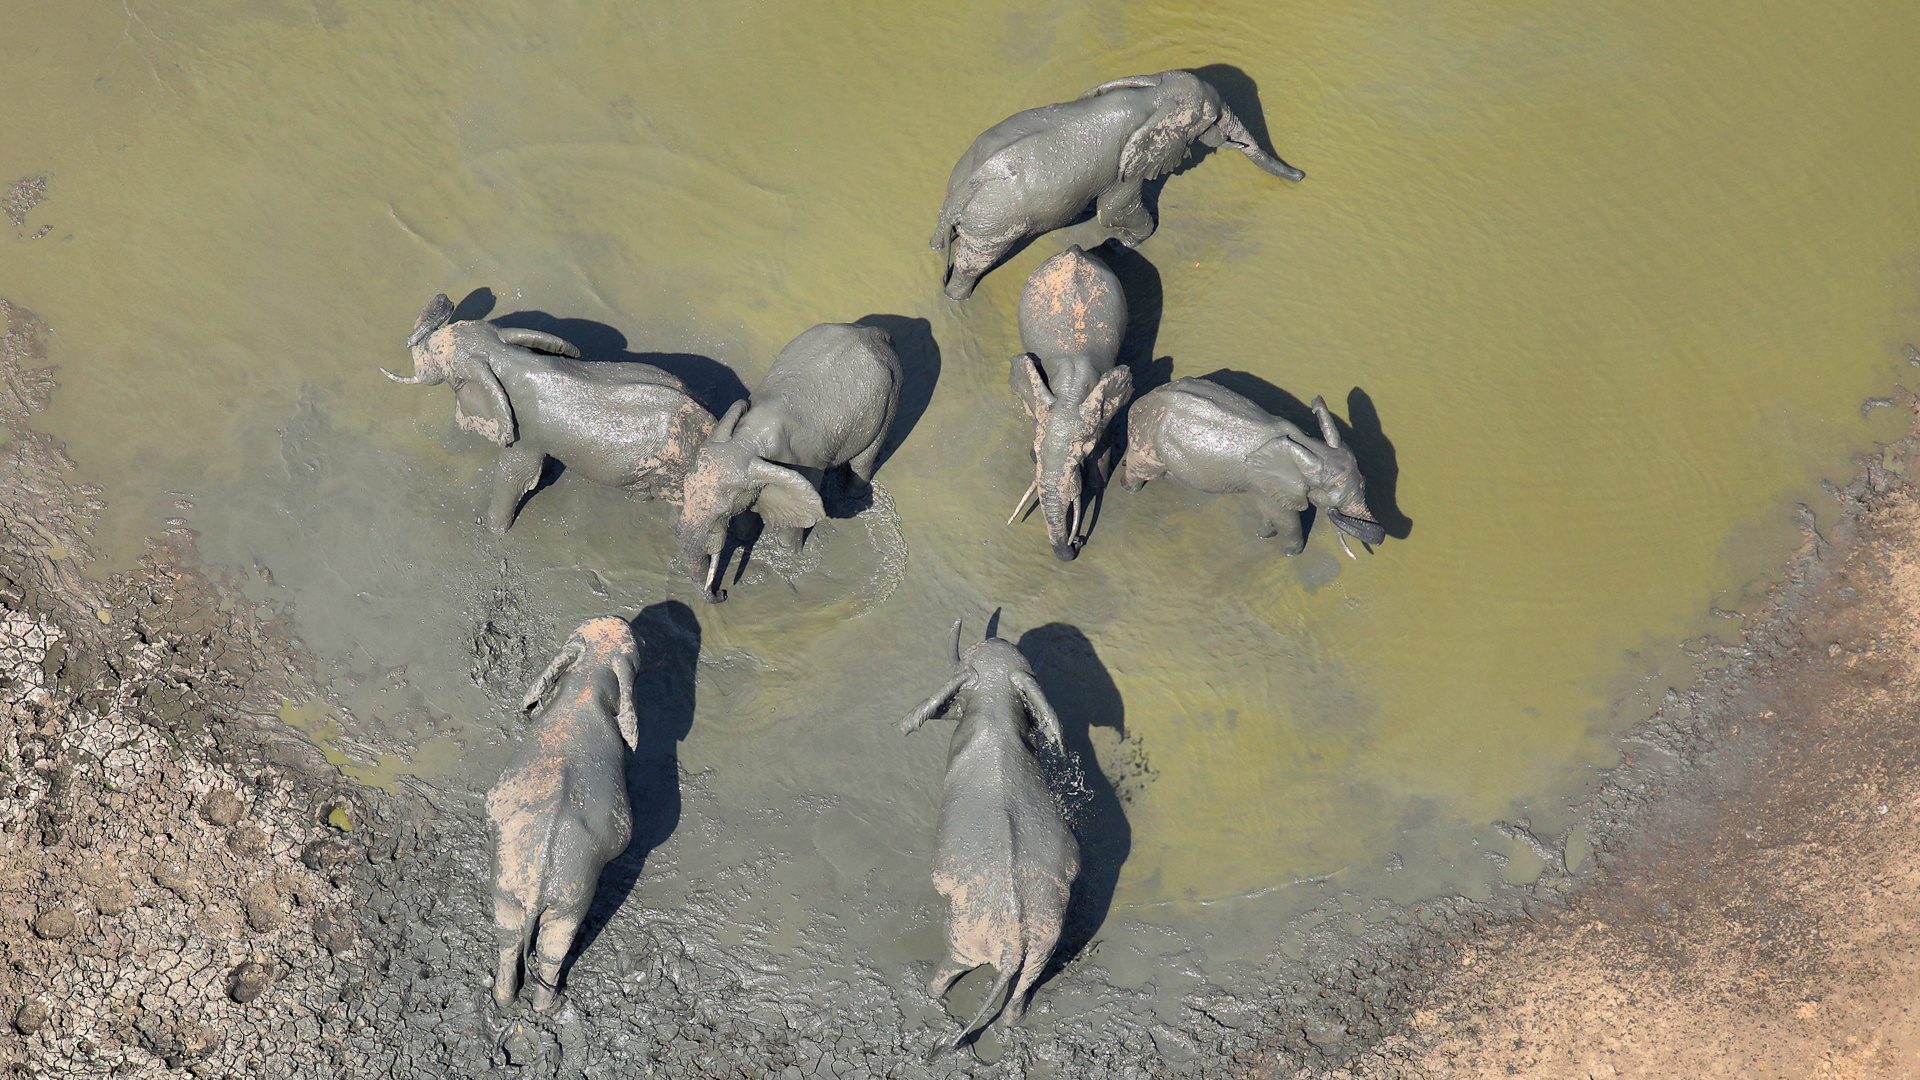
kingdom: Animalia
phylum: Chordata
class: Mammalia
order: Proboscidea
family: Elephantidae
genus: Loxodonta
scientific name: Loxodonta africana
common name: African elephant
